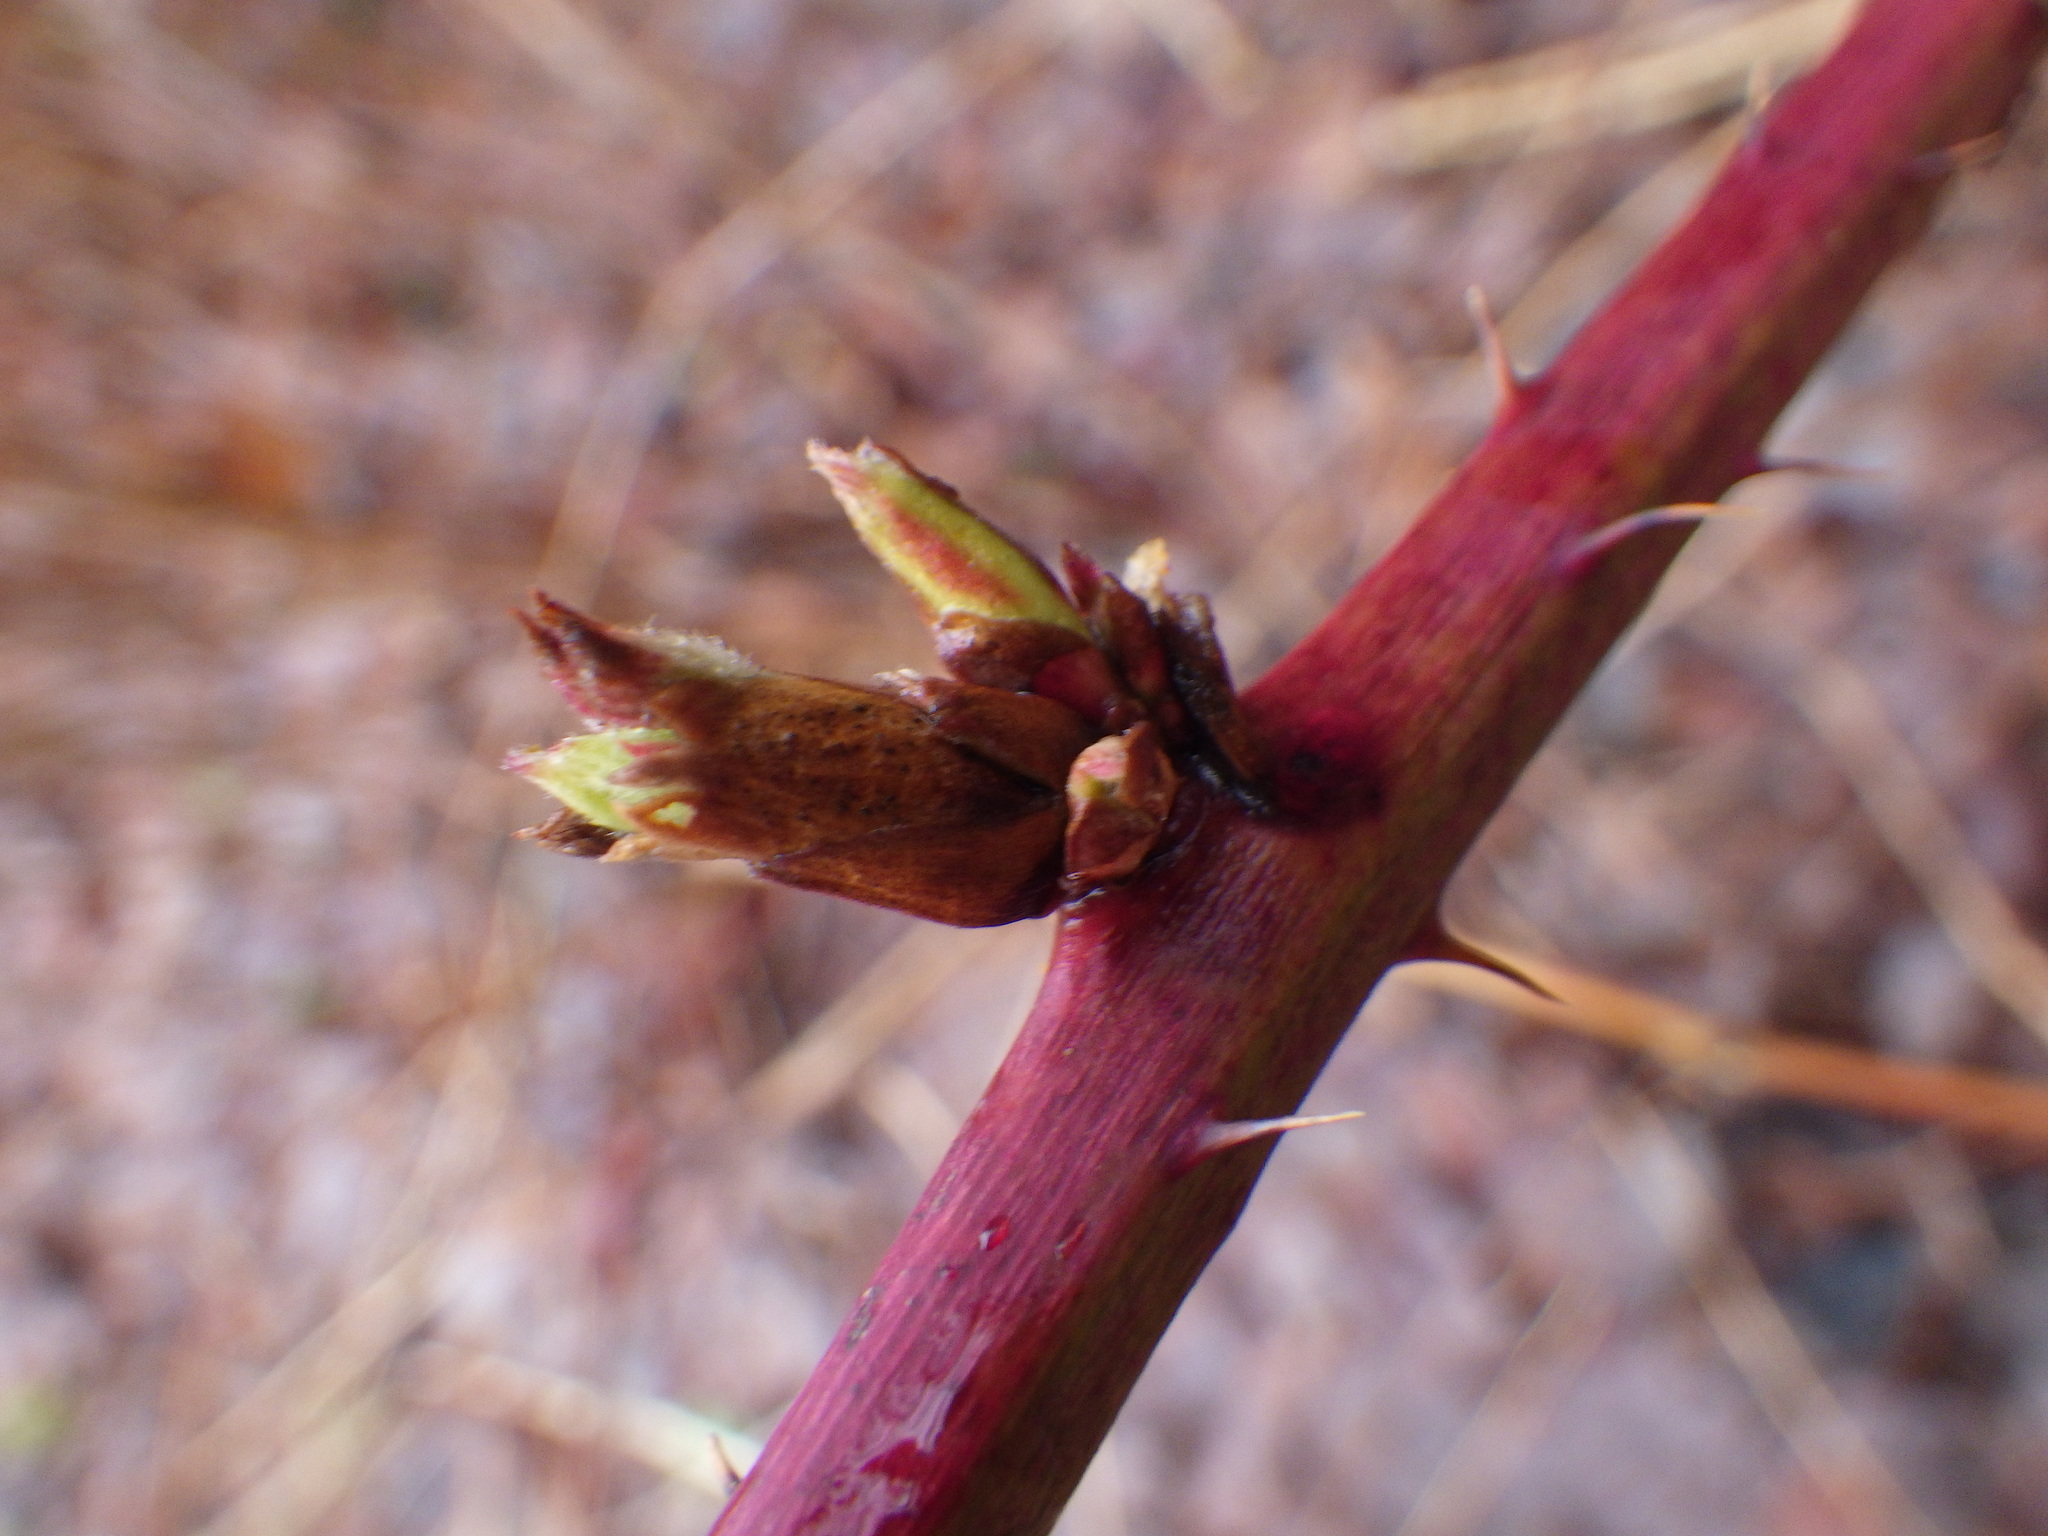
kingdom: Plantae
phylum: Tracheophyta
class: Magnoliopsida
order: Rosales
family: Rosaceae
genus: Rubus
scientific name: Rubus allegheniensis
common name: Allegheny blackberry
